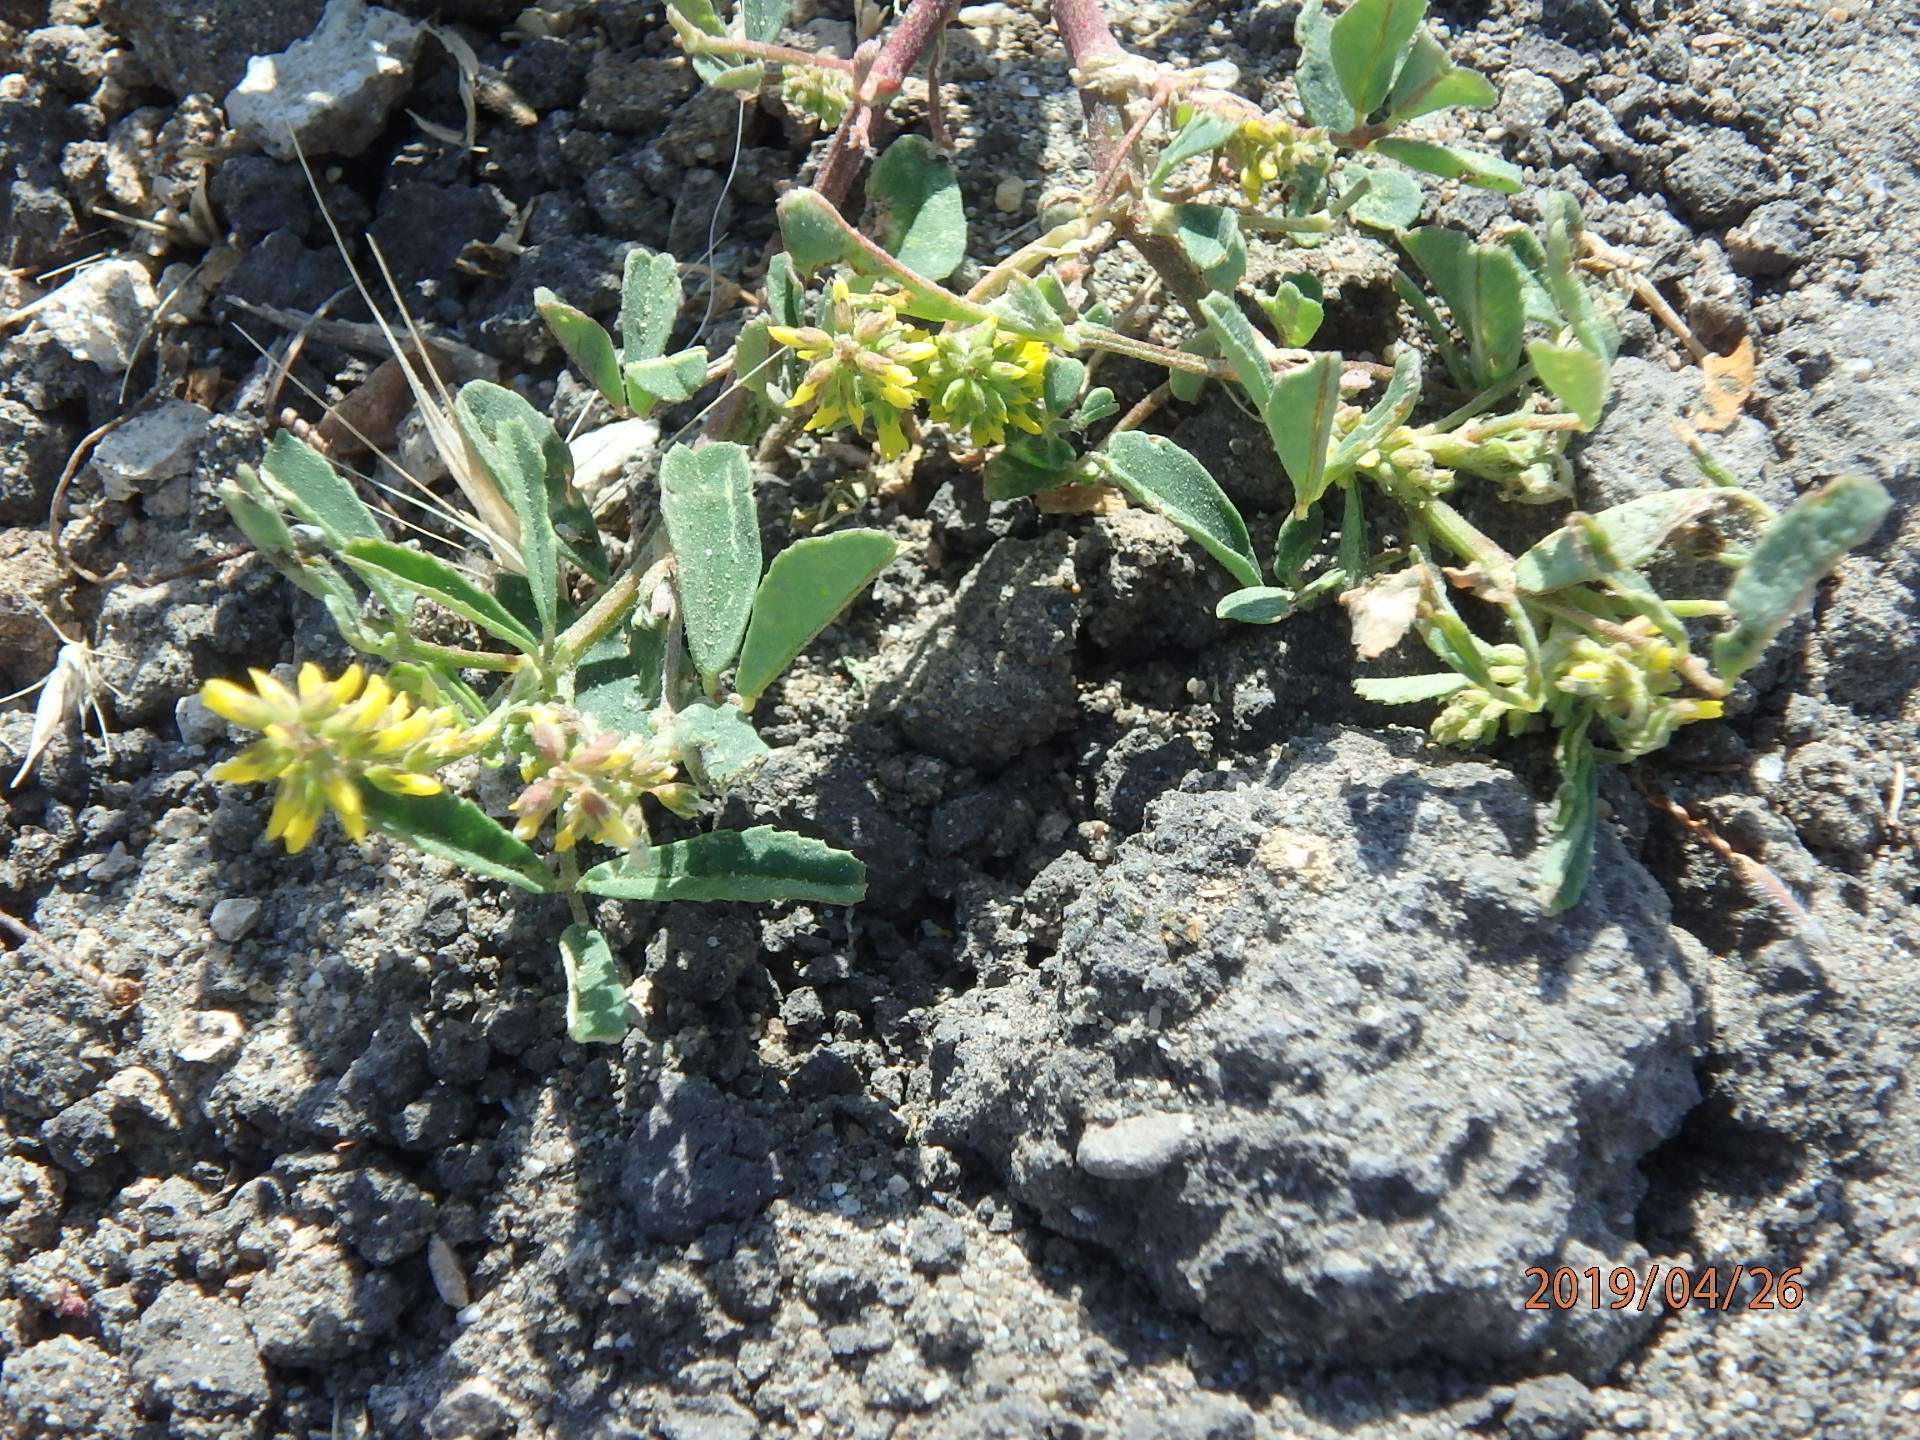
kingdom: Plantae
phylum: Tracheophyta
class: Magnoliopsida
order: Fabales
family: Fabaceae
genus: Melilotus
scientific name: Melilotus indicus
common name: Small melilot
